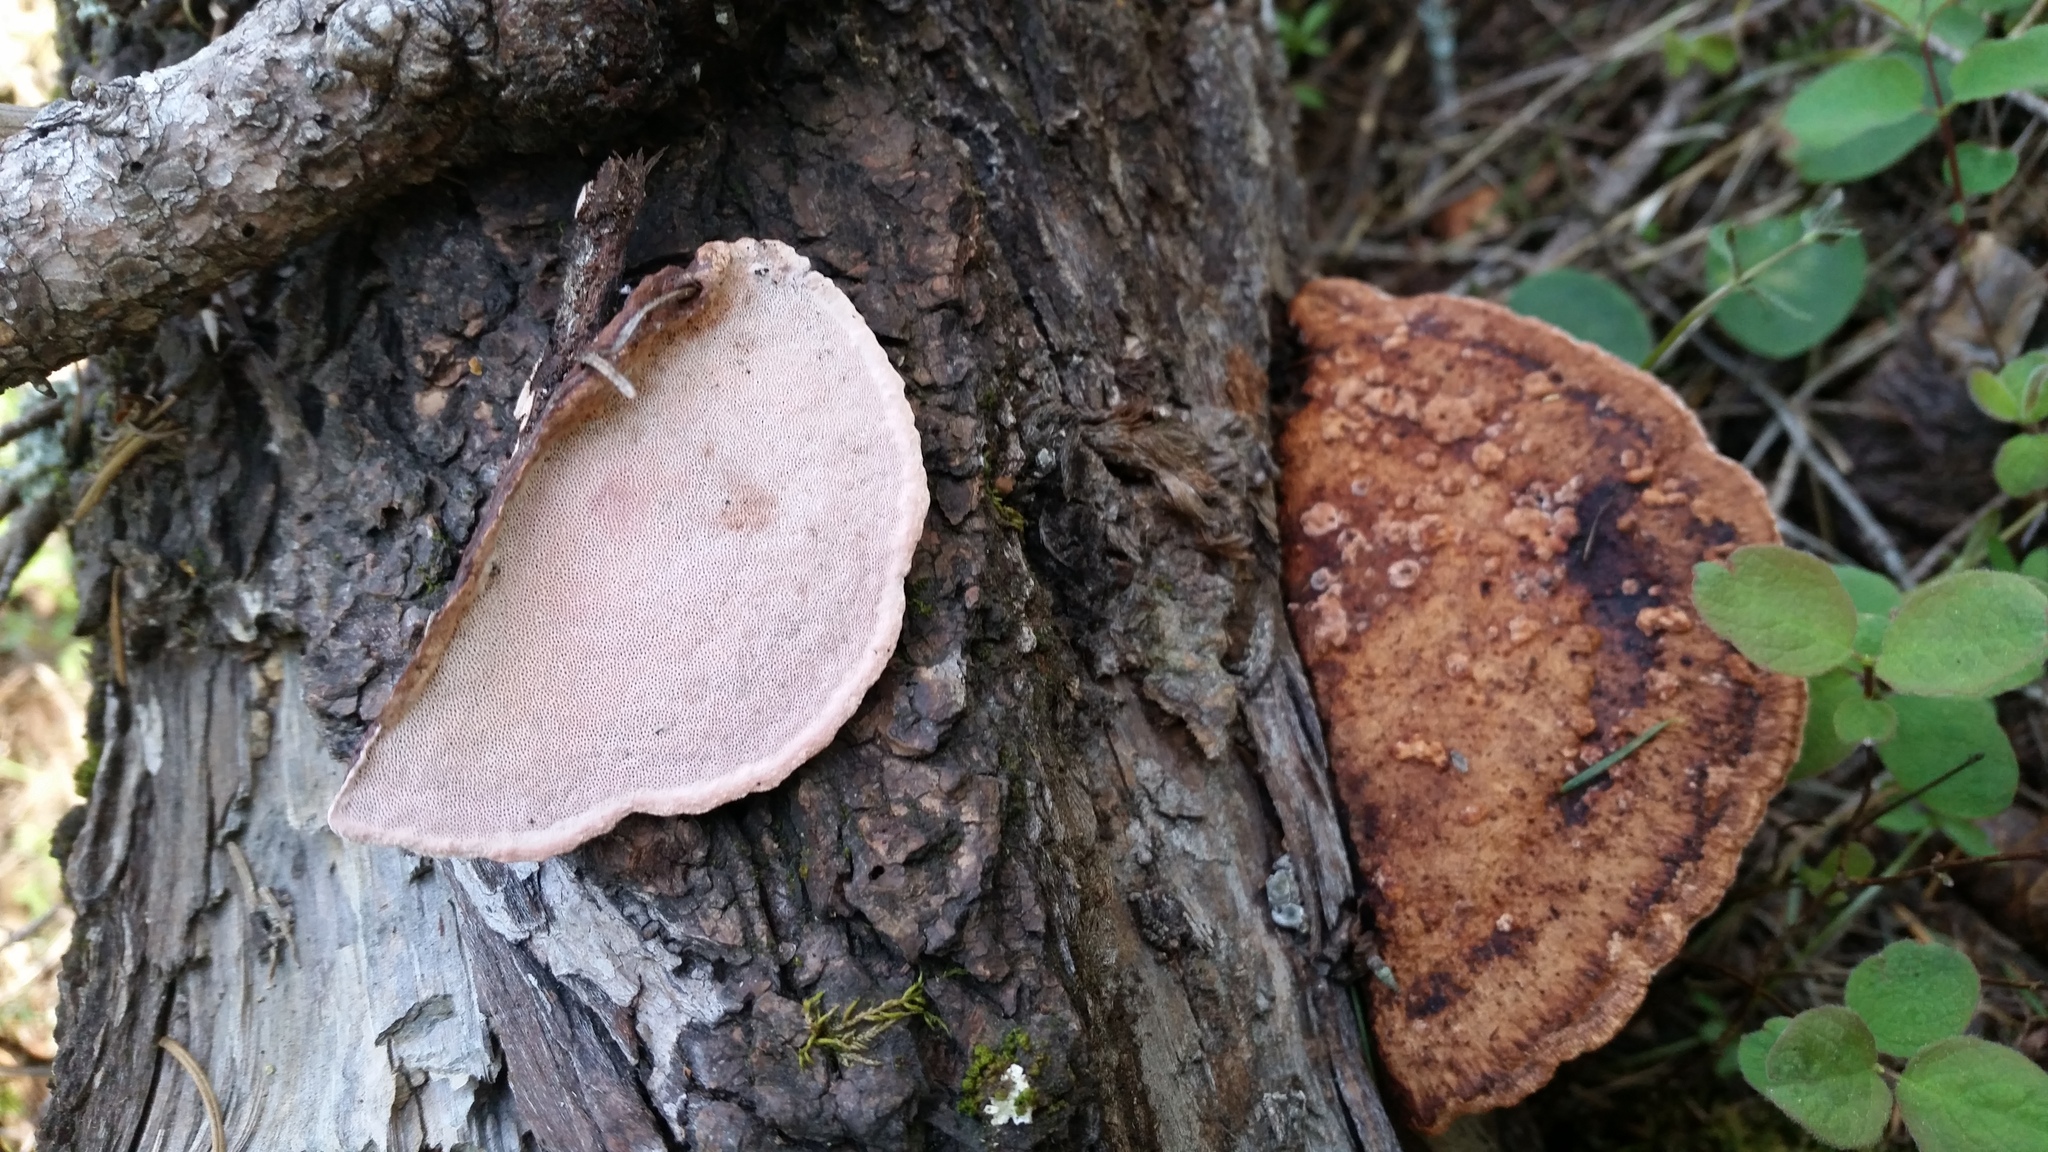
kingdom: Fungi
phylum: Basidiomycota
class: Agaricomycetes
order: Polyporales
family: Fomitopsidaceae
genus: Rhodofomes
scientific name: Rhodofomes cajanderi
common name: Rosy conk
